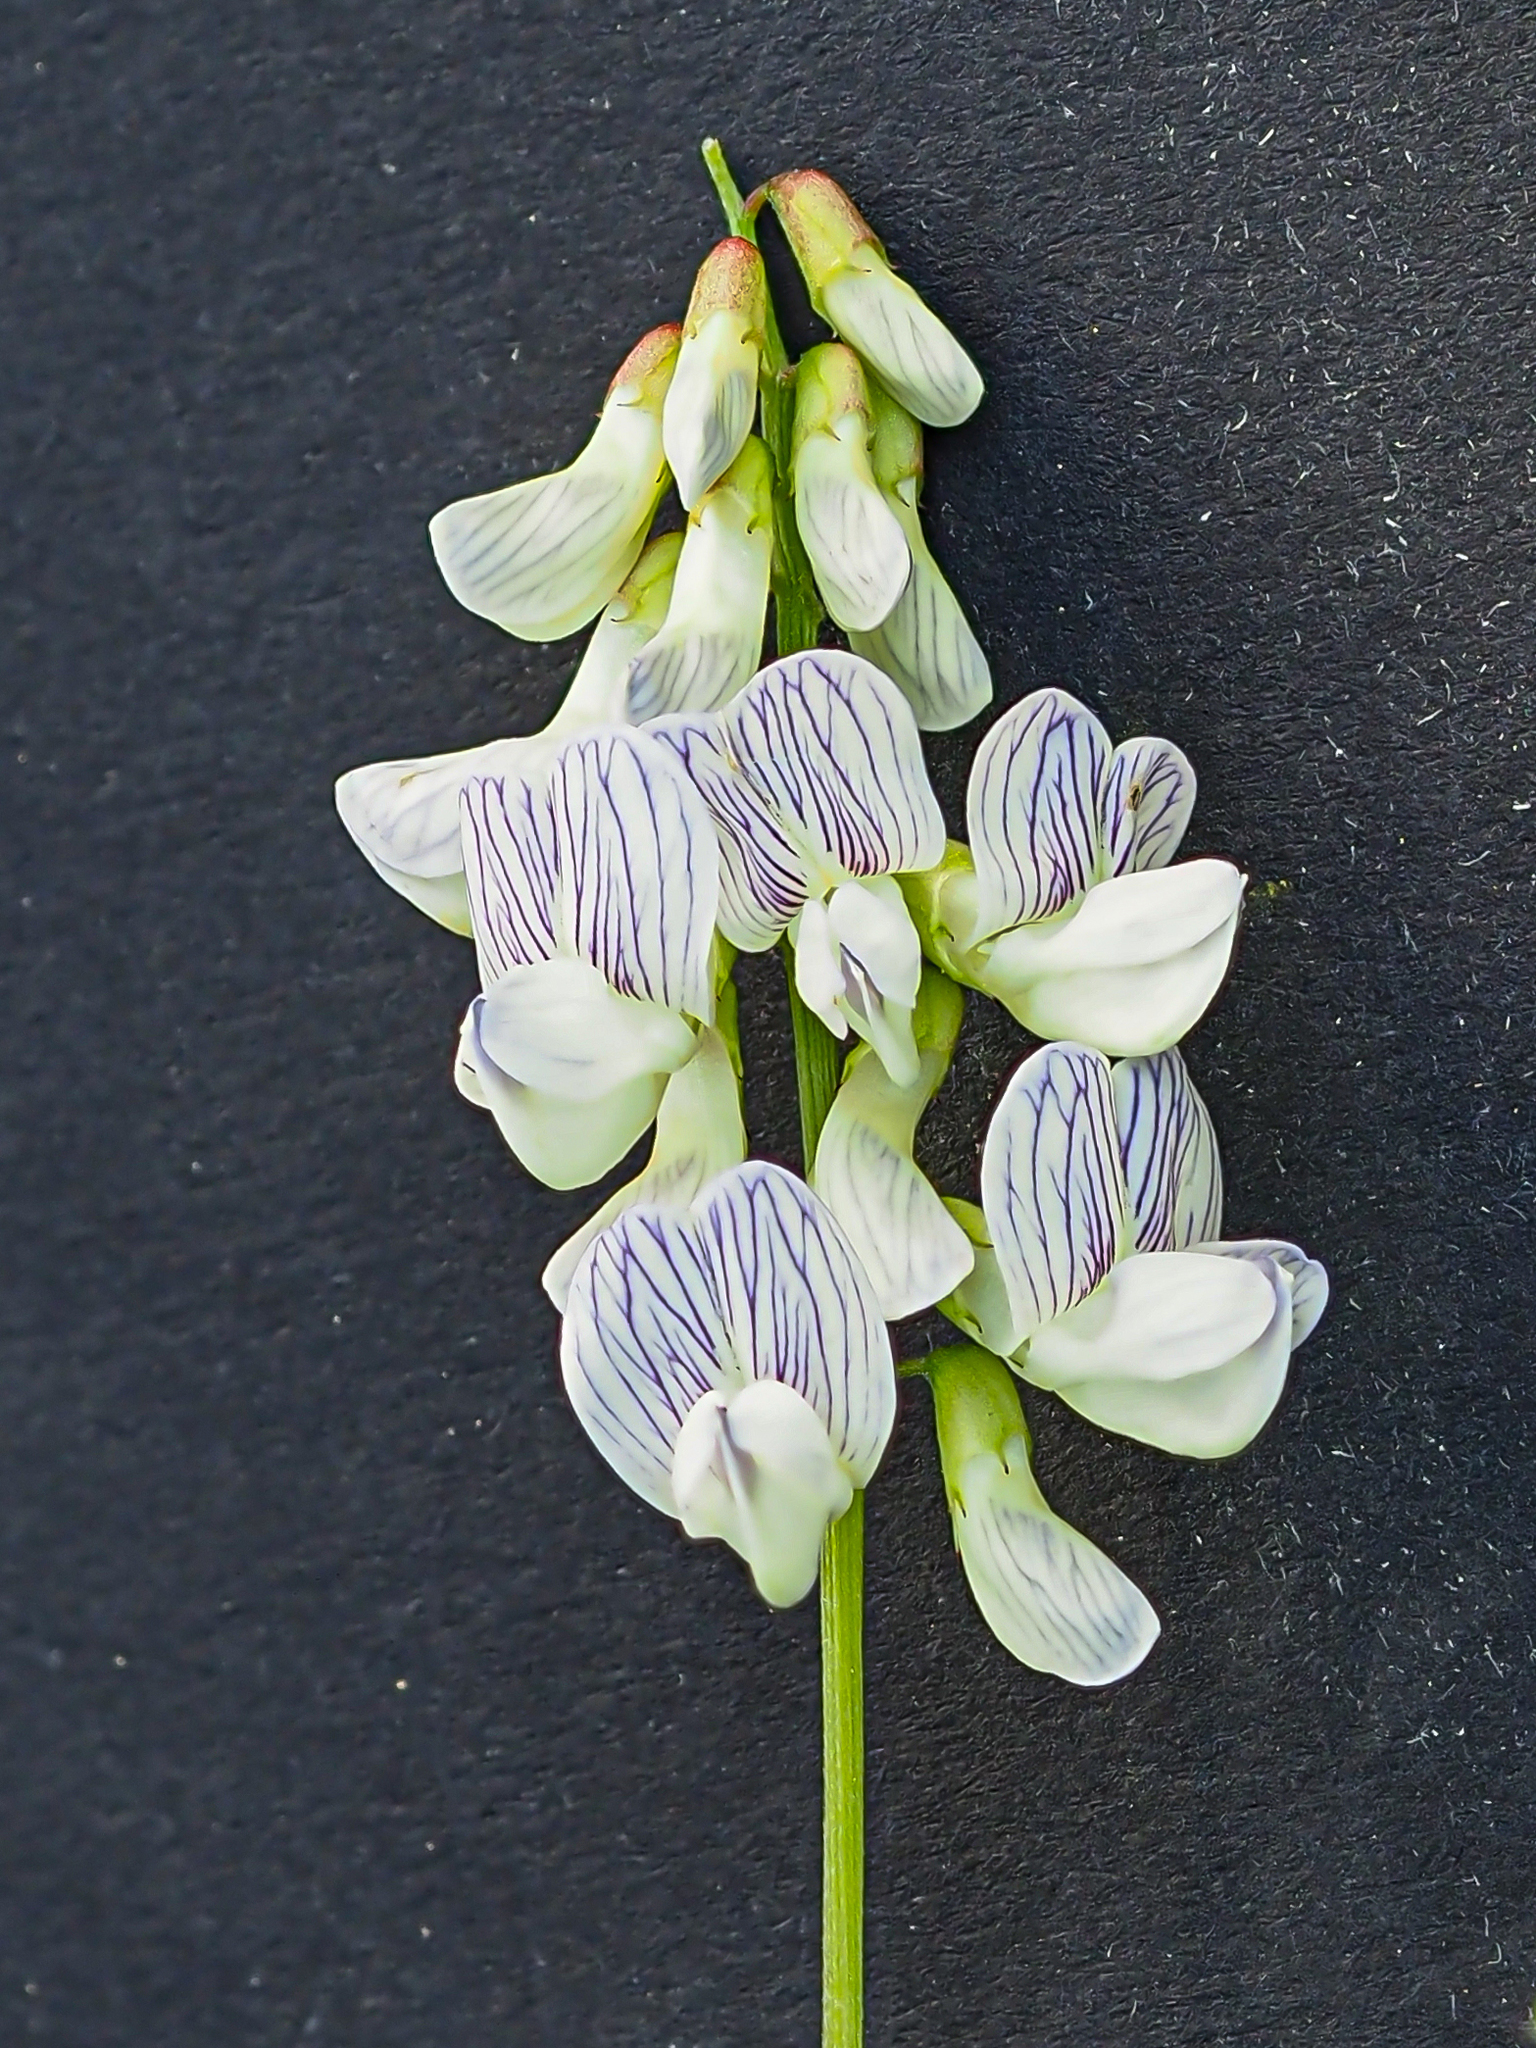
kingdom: Plantae
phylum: Tracheophyta
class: Magnoliopsida
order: Fabales
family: Fabaceae
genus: Vicia
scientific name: Vicia sylvatica
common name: Wood vetch
